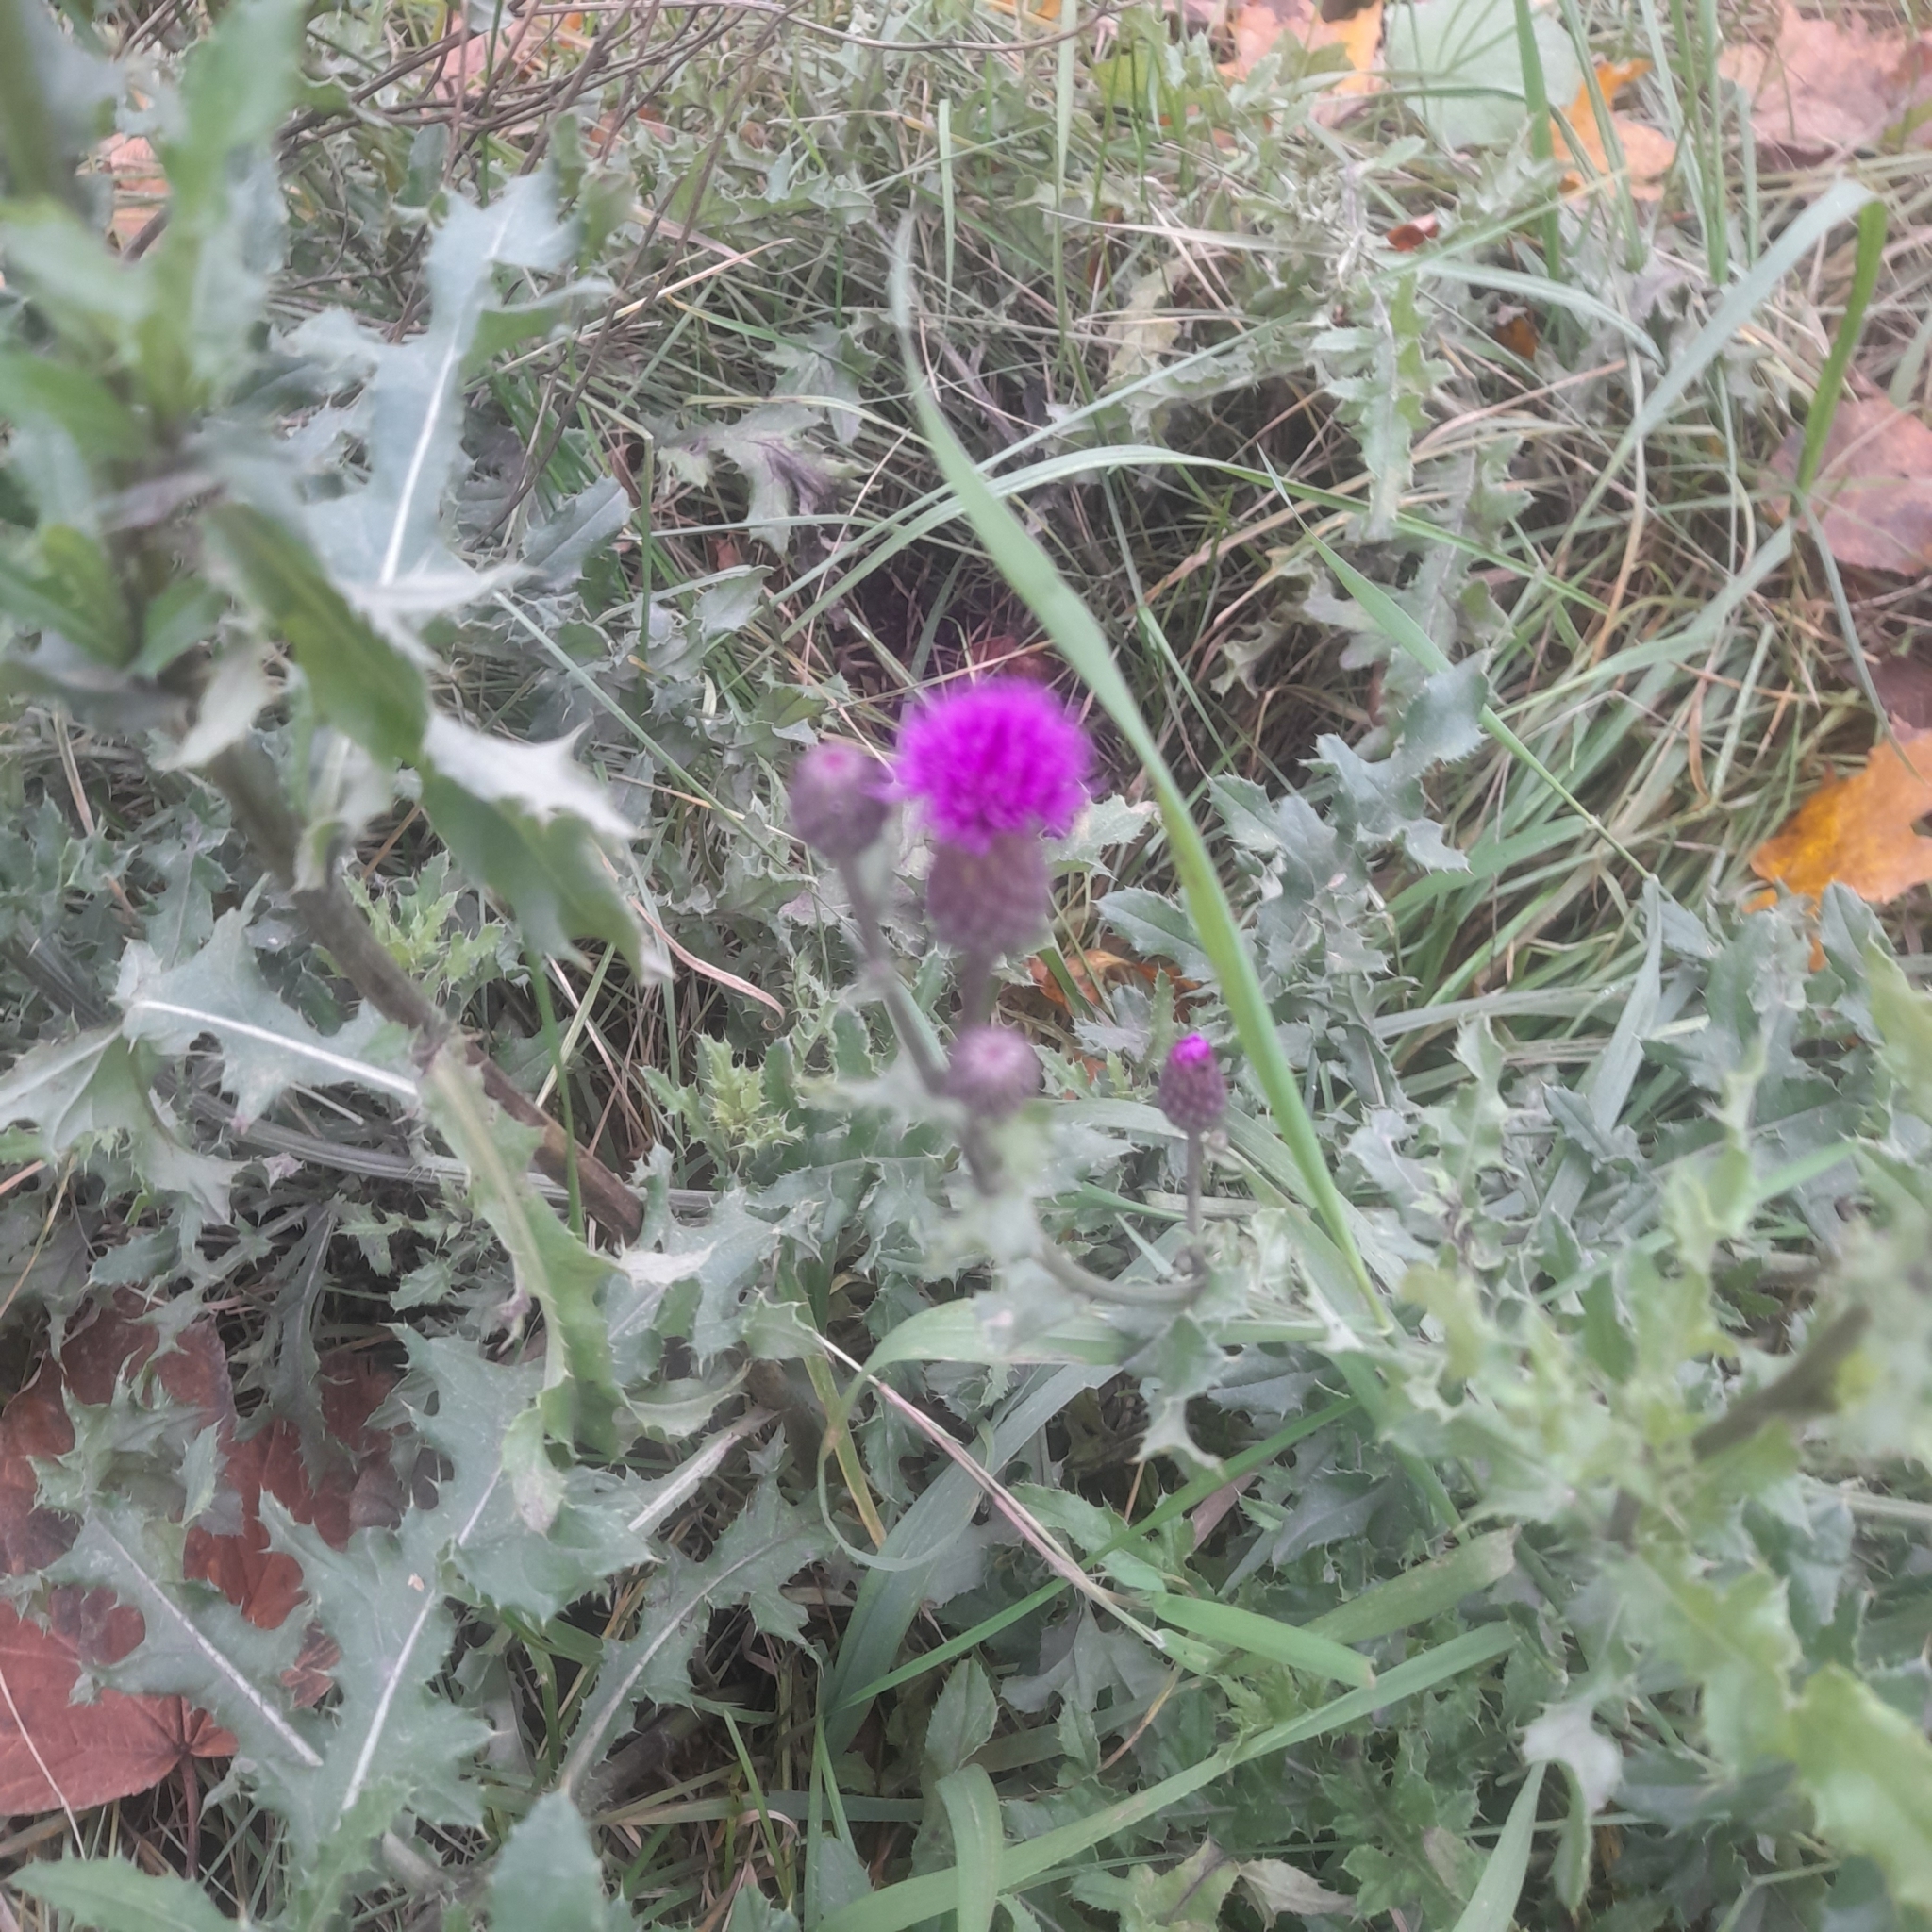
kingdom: Plantae
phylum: Tracheophyta
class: Magnoliopsida
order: Asterales
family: Asteraceae
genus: Cirsium
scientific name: Cirsium arvense
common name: Creeping thistle
